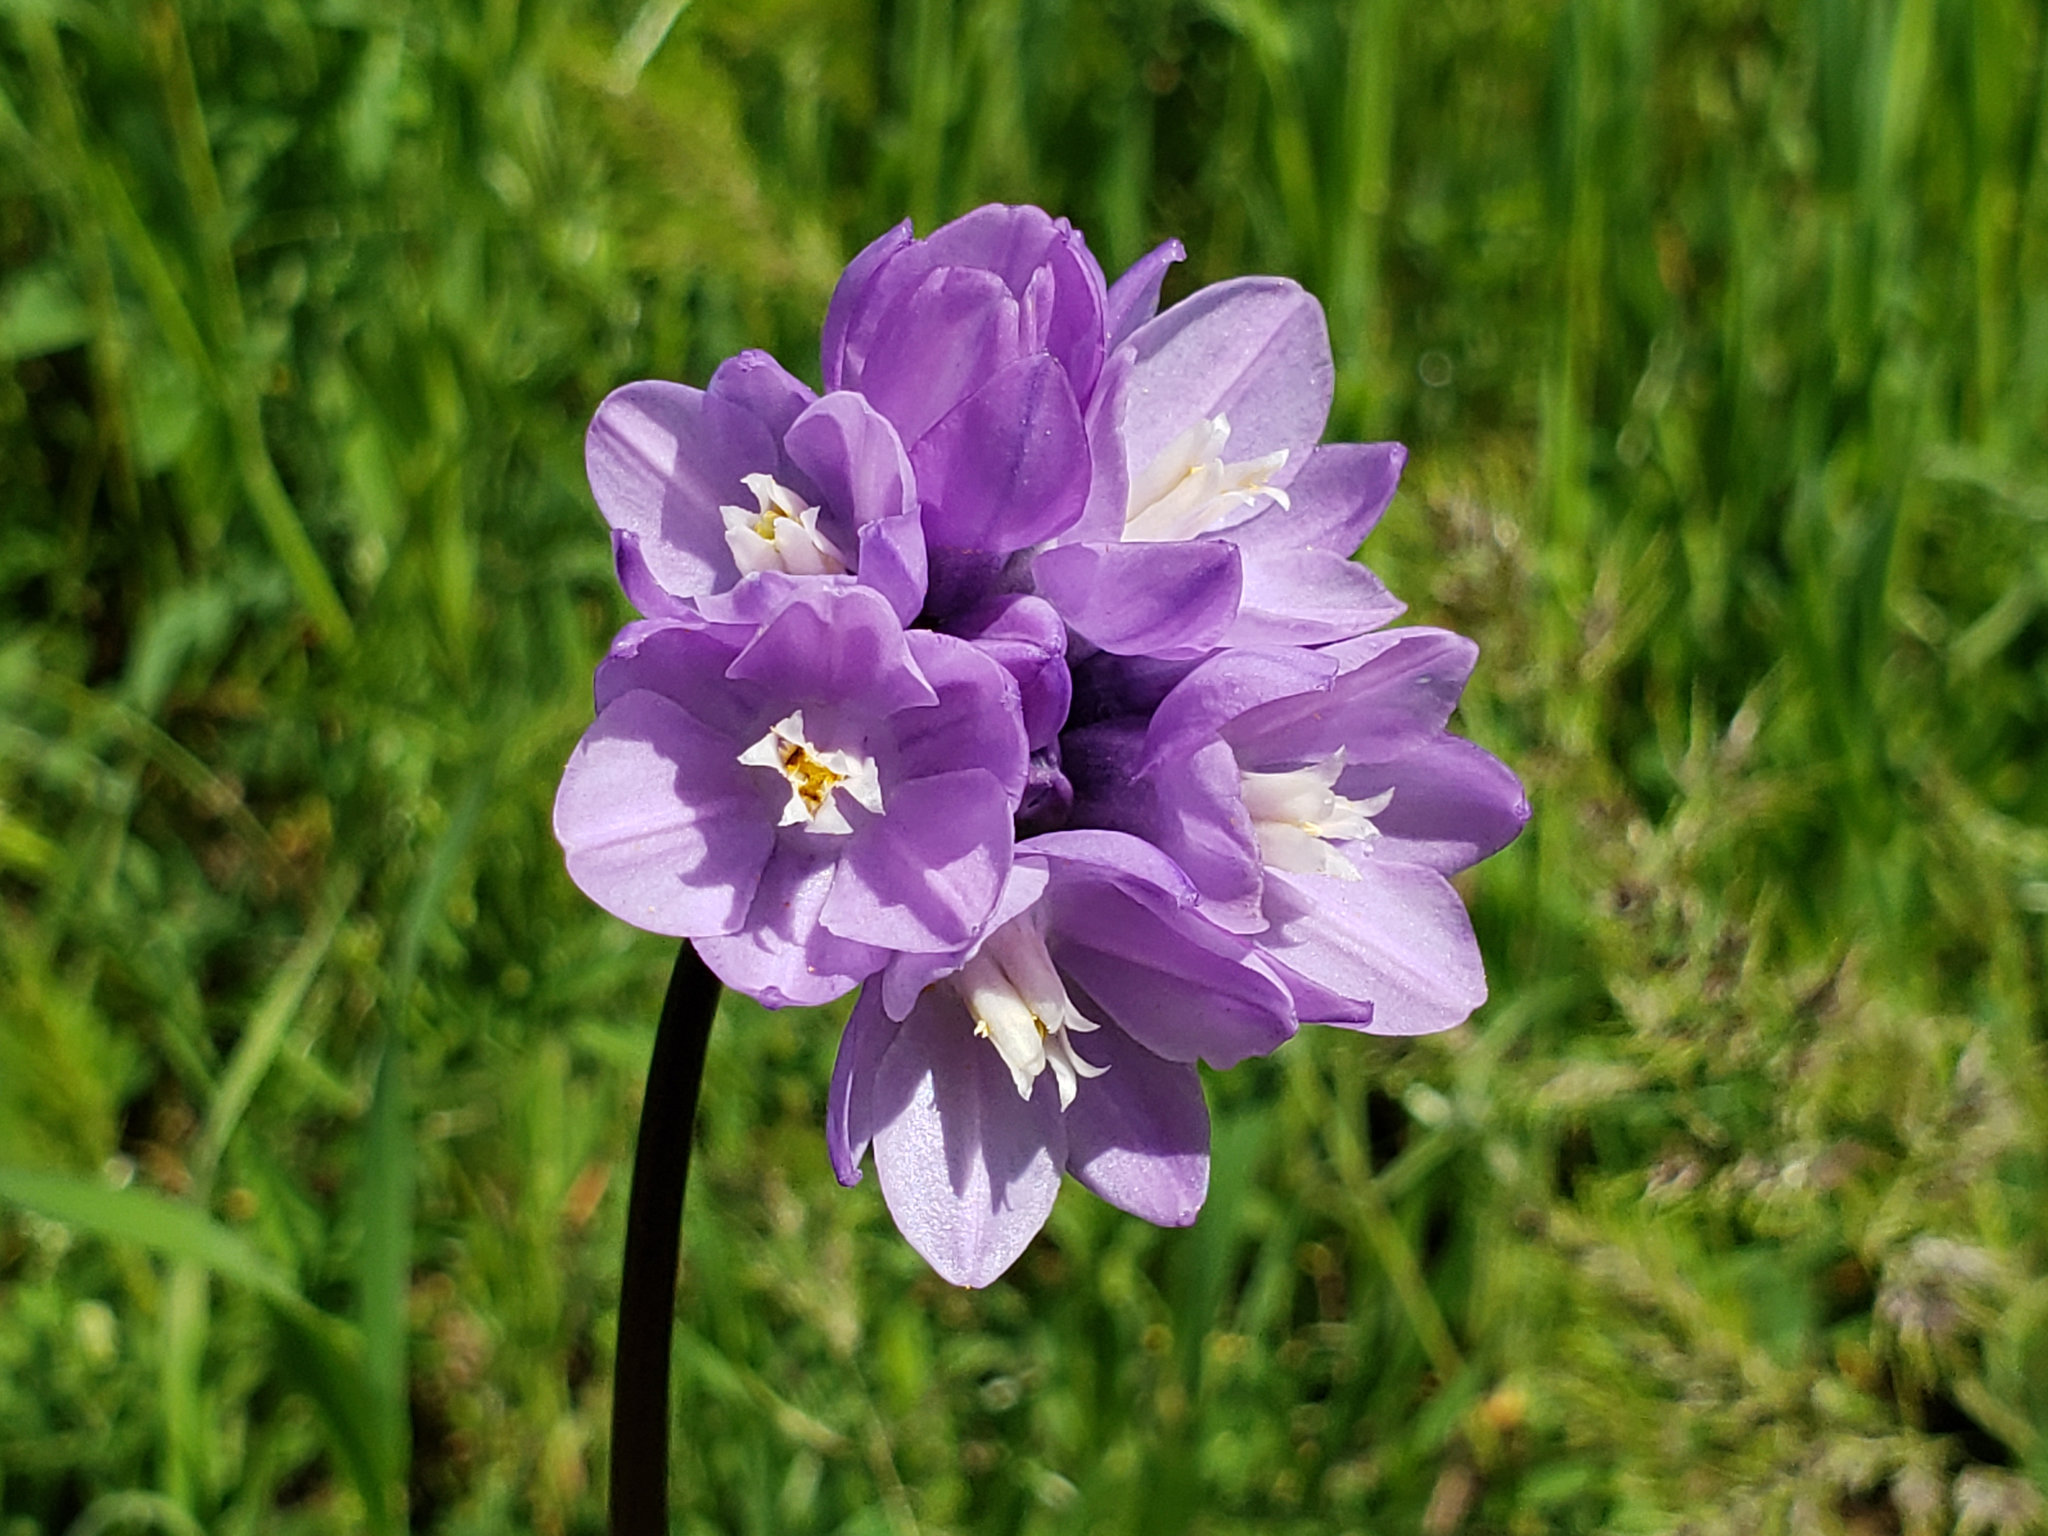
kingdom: Plantae
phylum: Tracheophyta
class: Liliopsida
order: Asparagales
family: Asparagaceae
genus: Dipterostemon
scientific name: Dipterostemon capitatus
